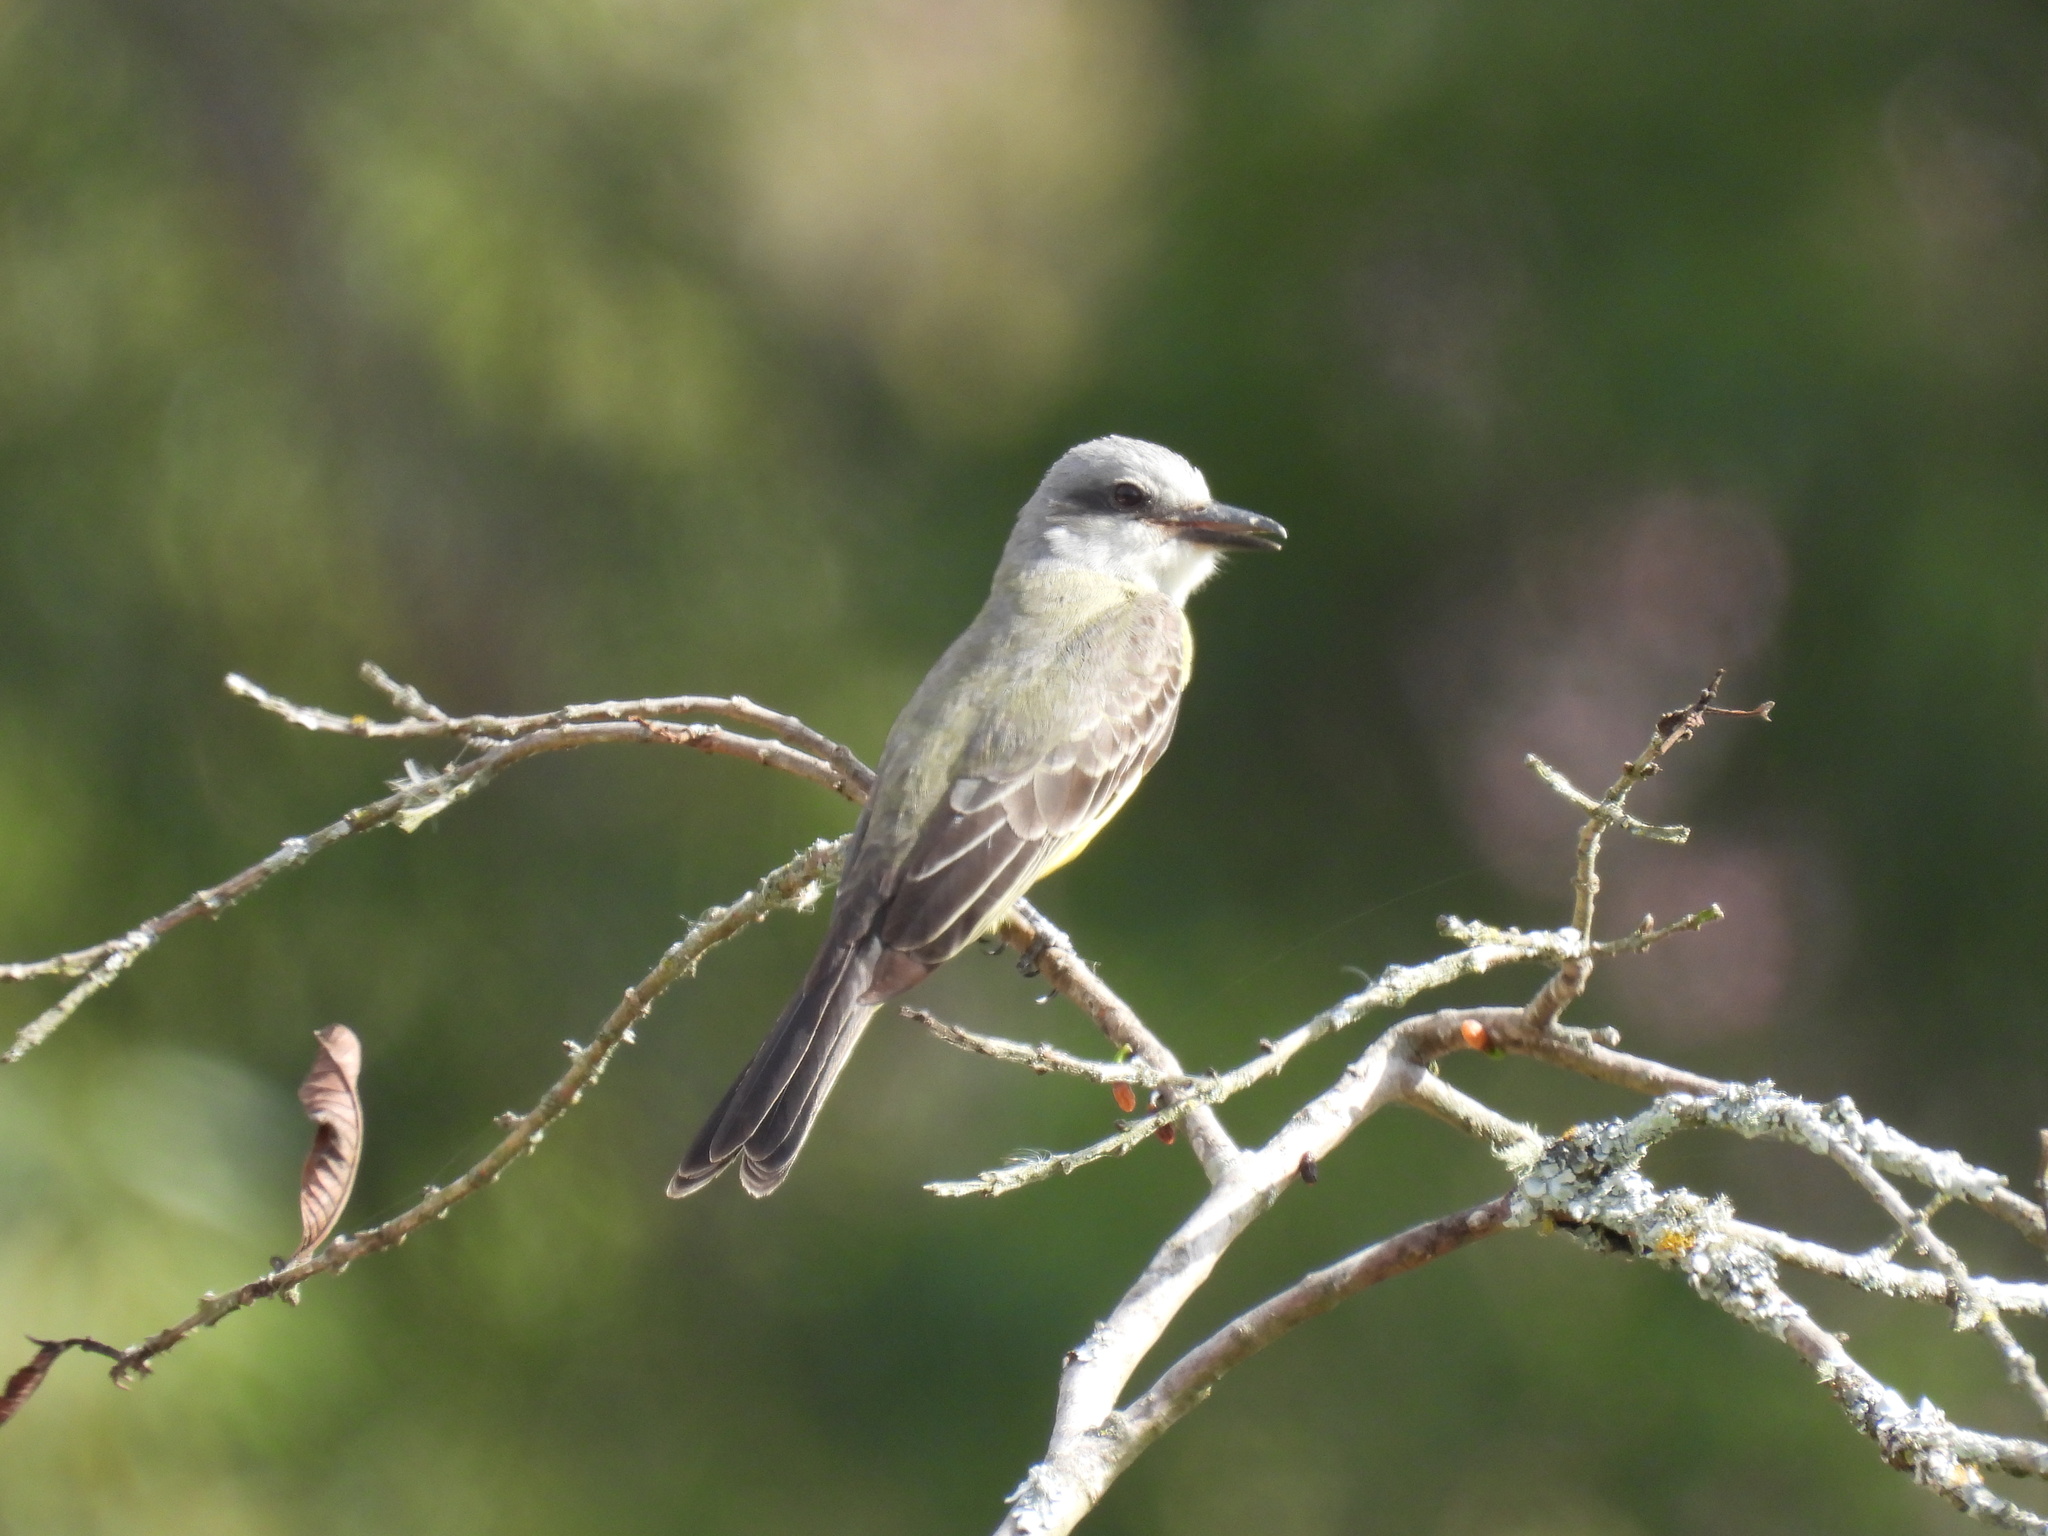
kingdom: Animalia
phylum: Chordata
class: Aves
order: Passeriformes
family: Tyrannidae
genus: Tyrannus
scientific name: Tyrannus melancholicus
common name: Tropical kingbird
